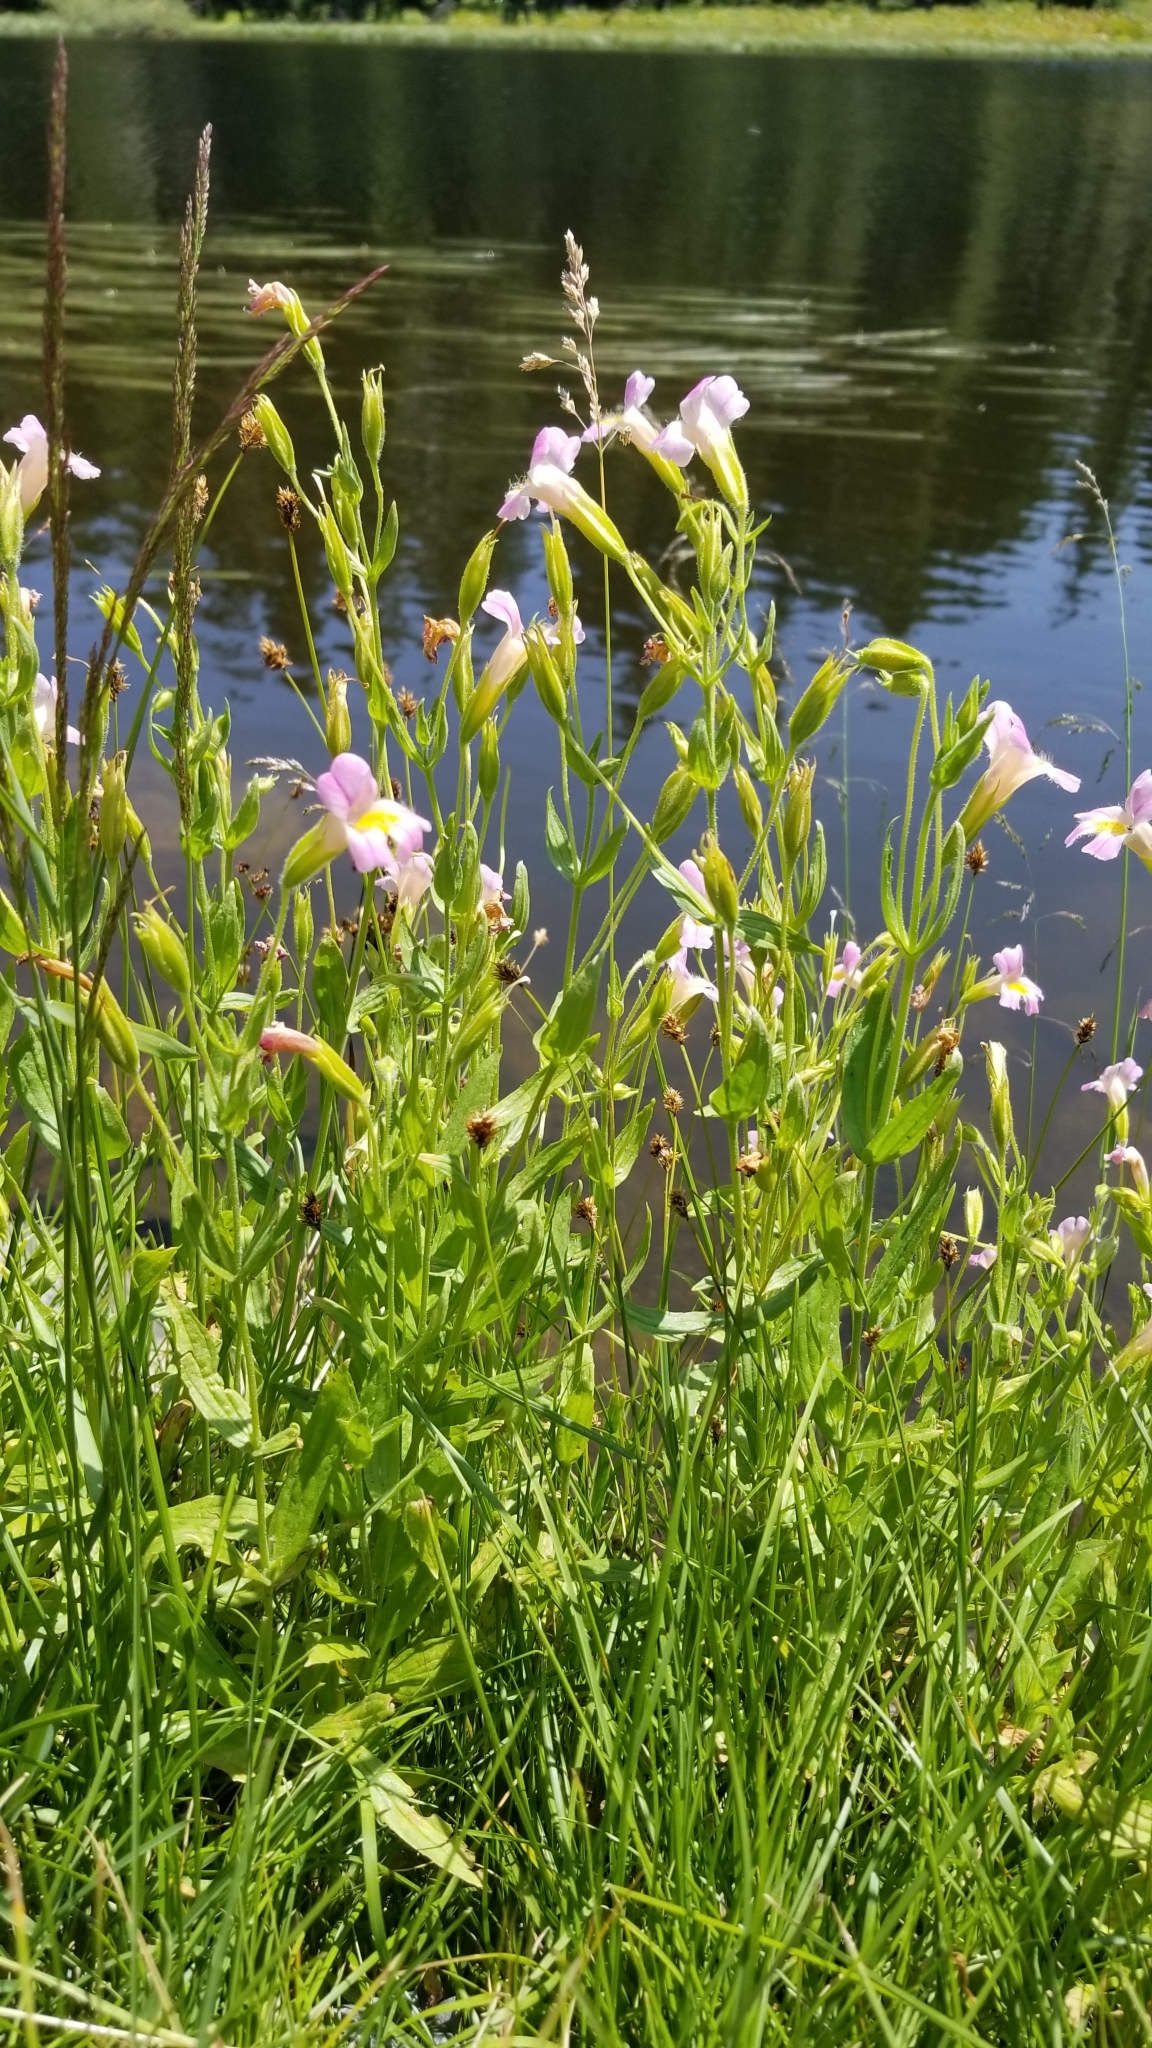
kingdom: Plantae
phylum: Tracheophyta
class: Magnoliopsida
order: Lamiales
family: Phrymaceae
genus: Erythranthe
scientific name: Erythranthe erubescens
